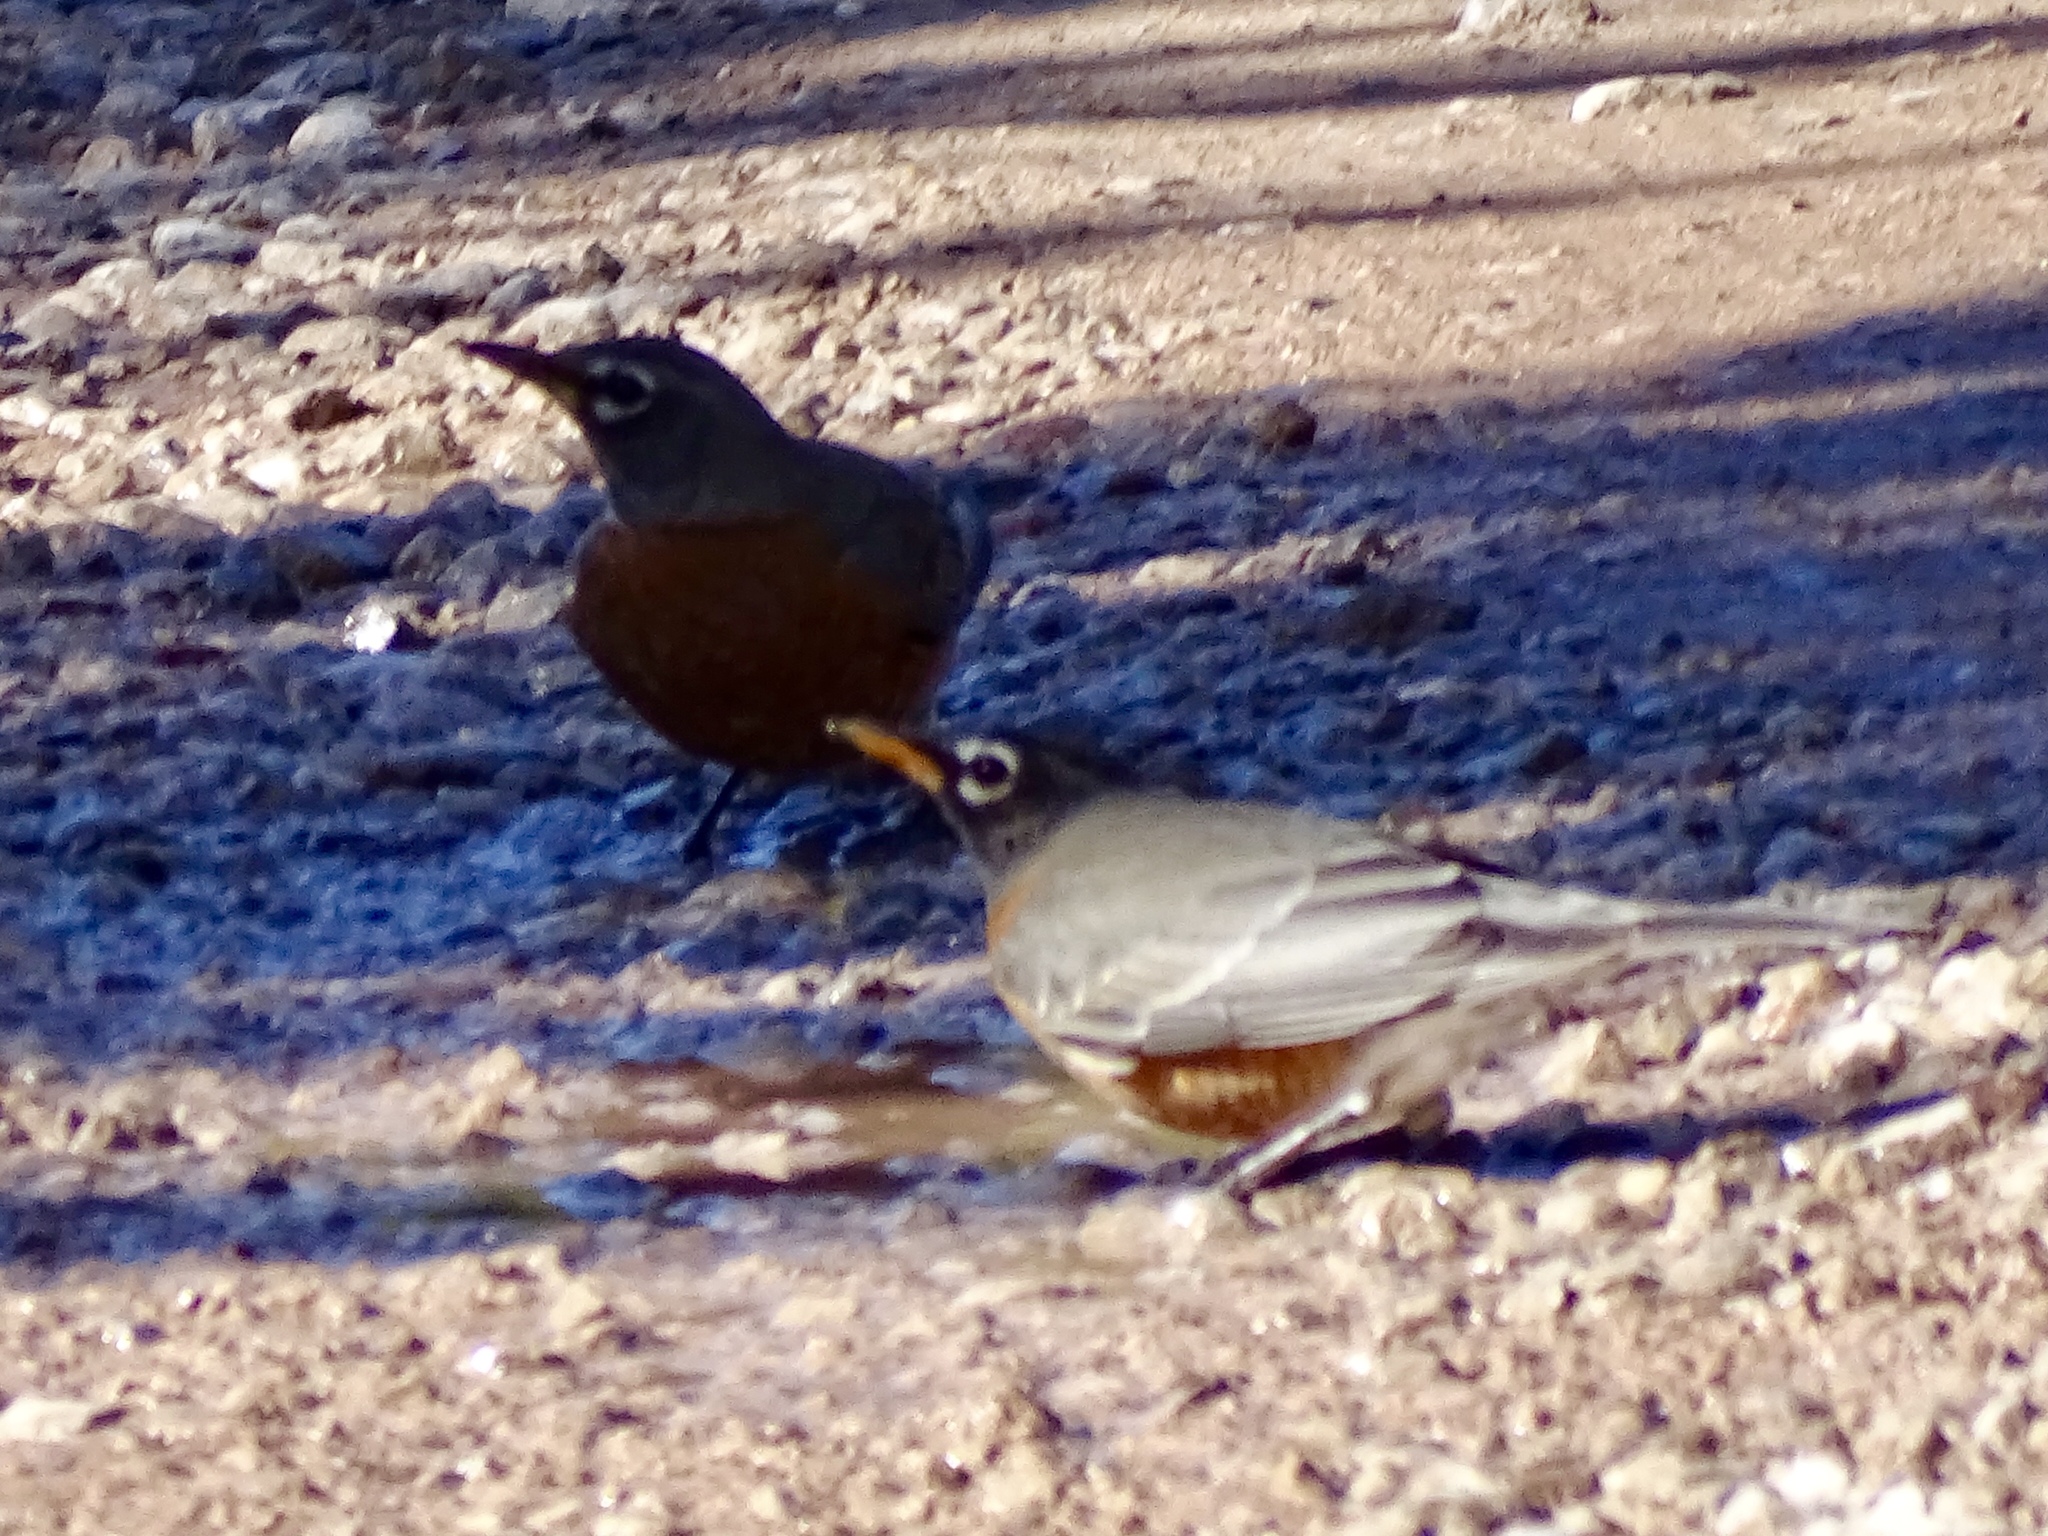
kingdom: Animalia
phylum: Chordata
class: Aves
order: Passeriformes
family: Turdidae
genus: Turdus
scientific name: Turdus migratorius
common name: American robin
